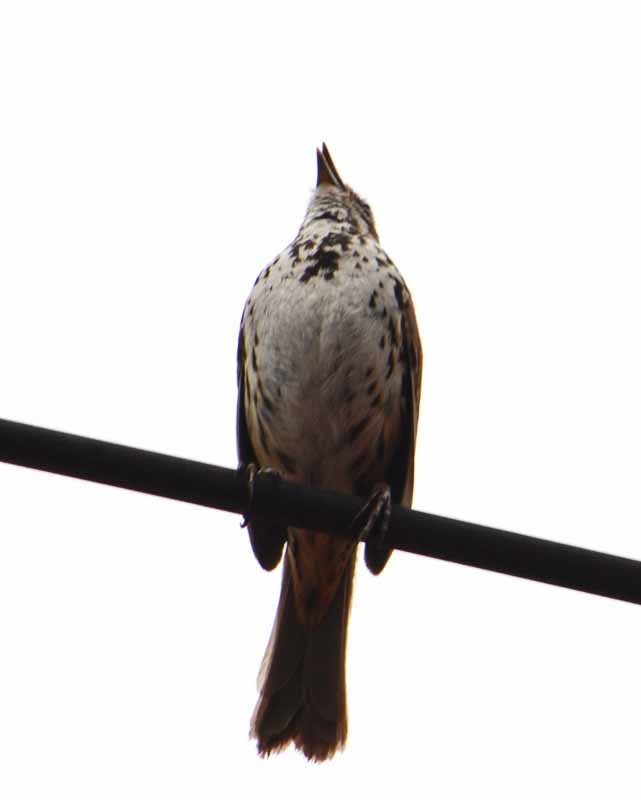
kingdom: Animalia
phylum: Chordata
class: Aves
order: Passeriformes
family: Passerellidae
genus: Melospiza
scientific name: Melospiza melodia
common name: Song sparrow
